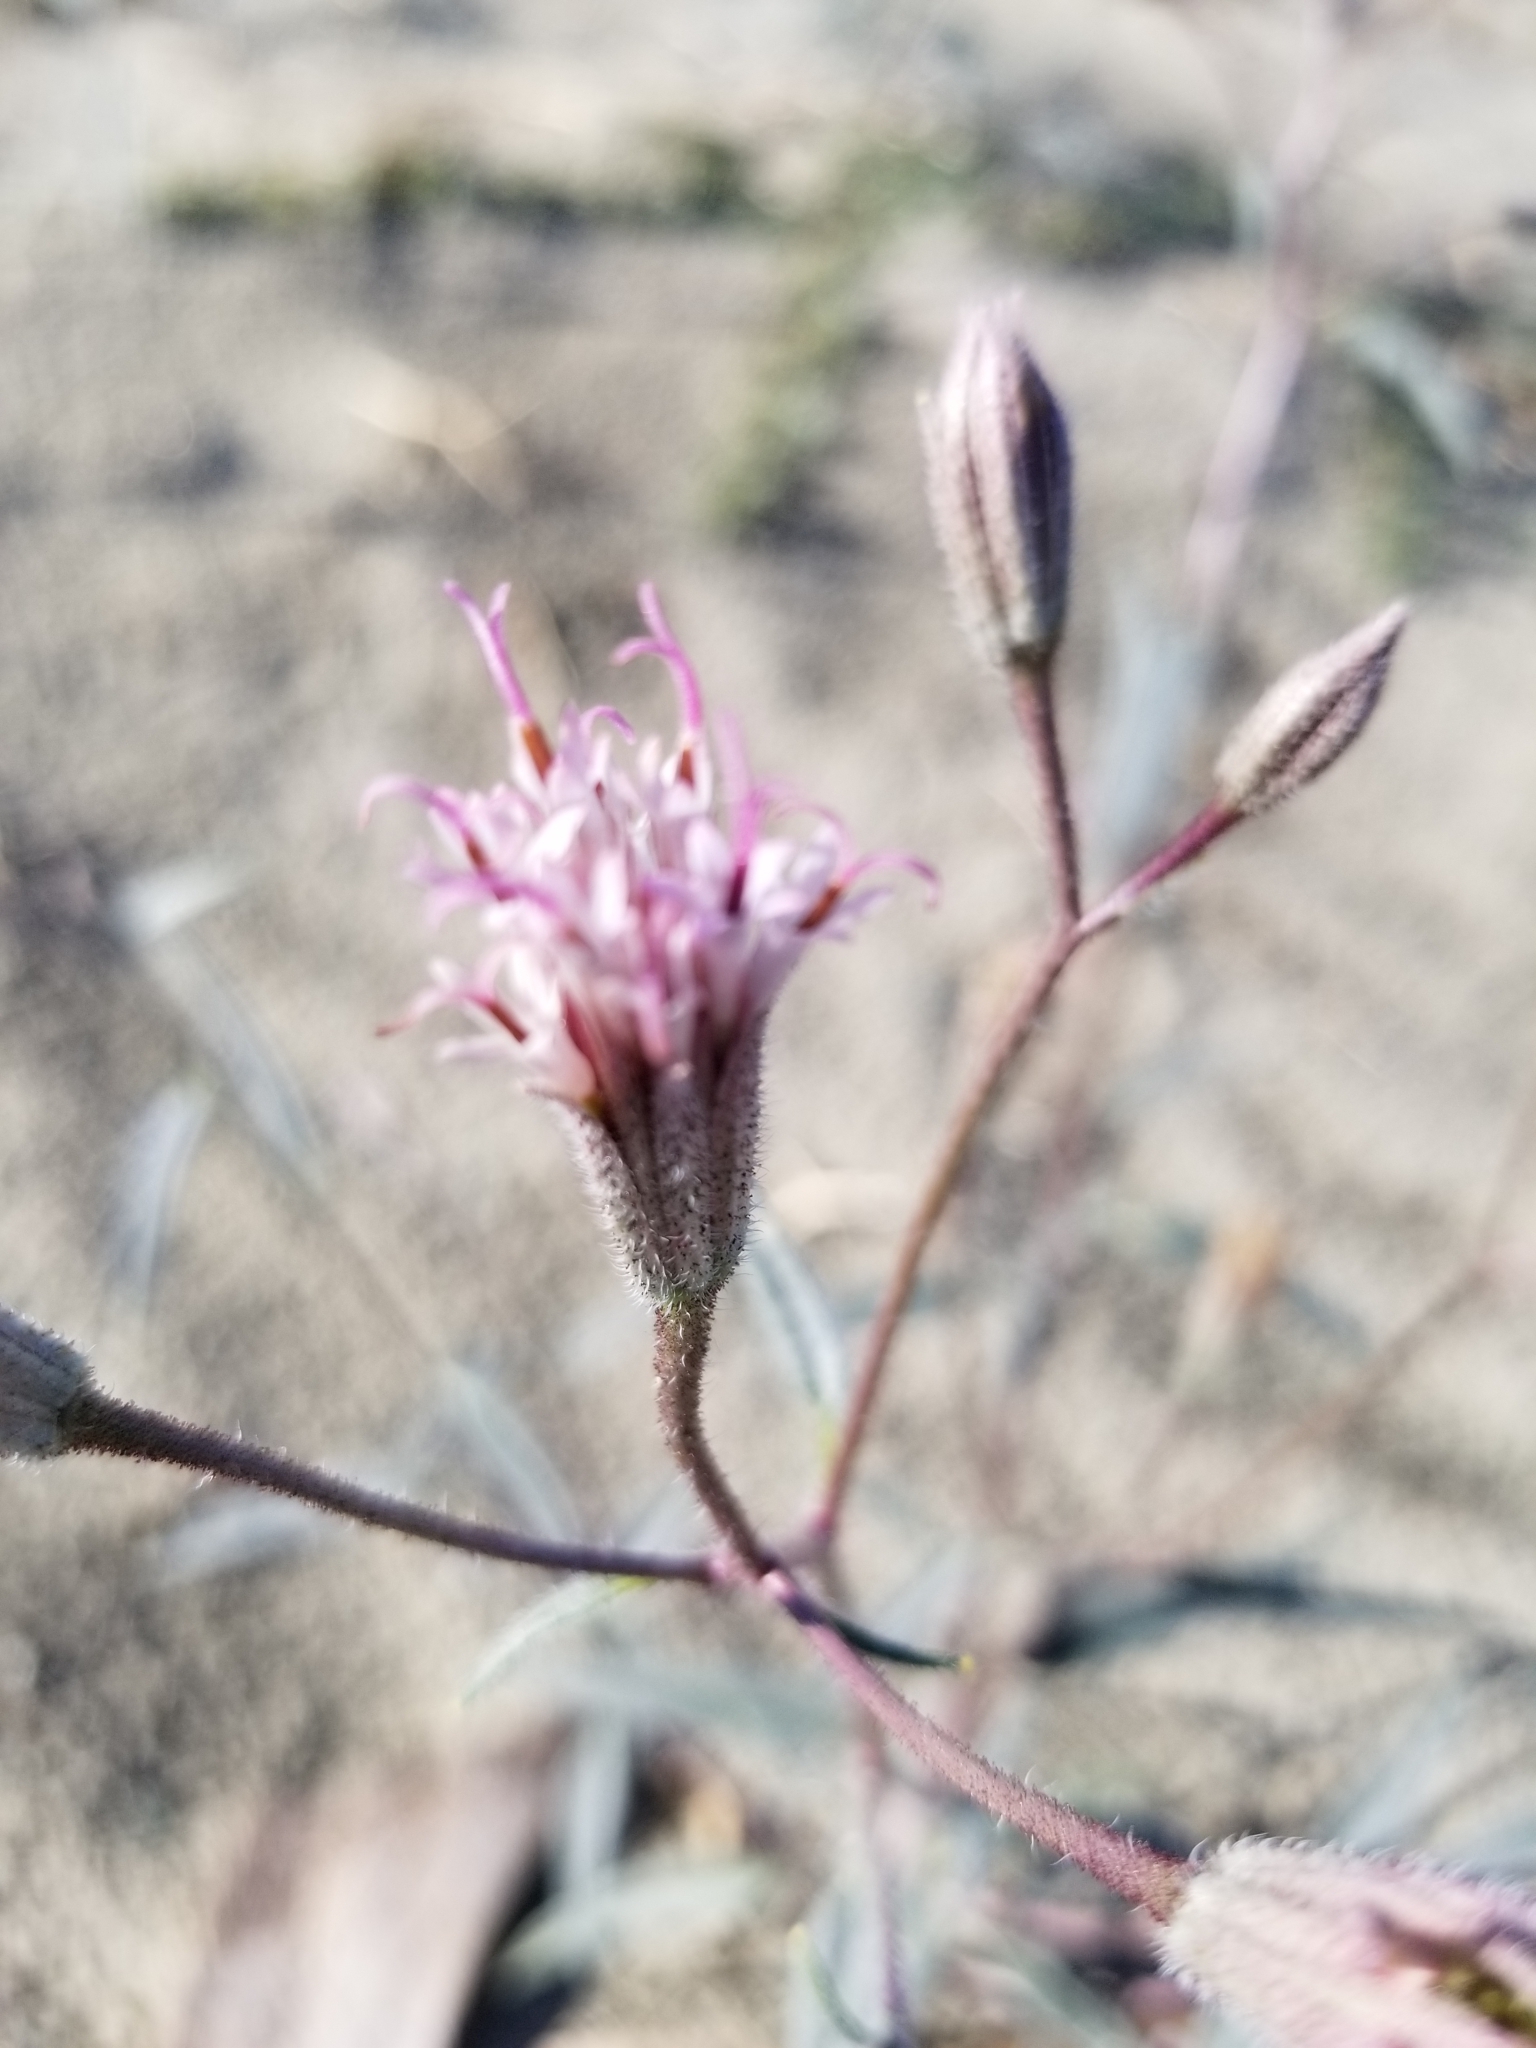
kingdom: Plantae
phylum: Tracheophyta
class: Magnoliopsida
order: Asterales
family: Asteraceae
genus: Palafoxia
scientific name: Palafoxia arida
